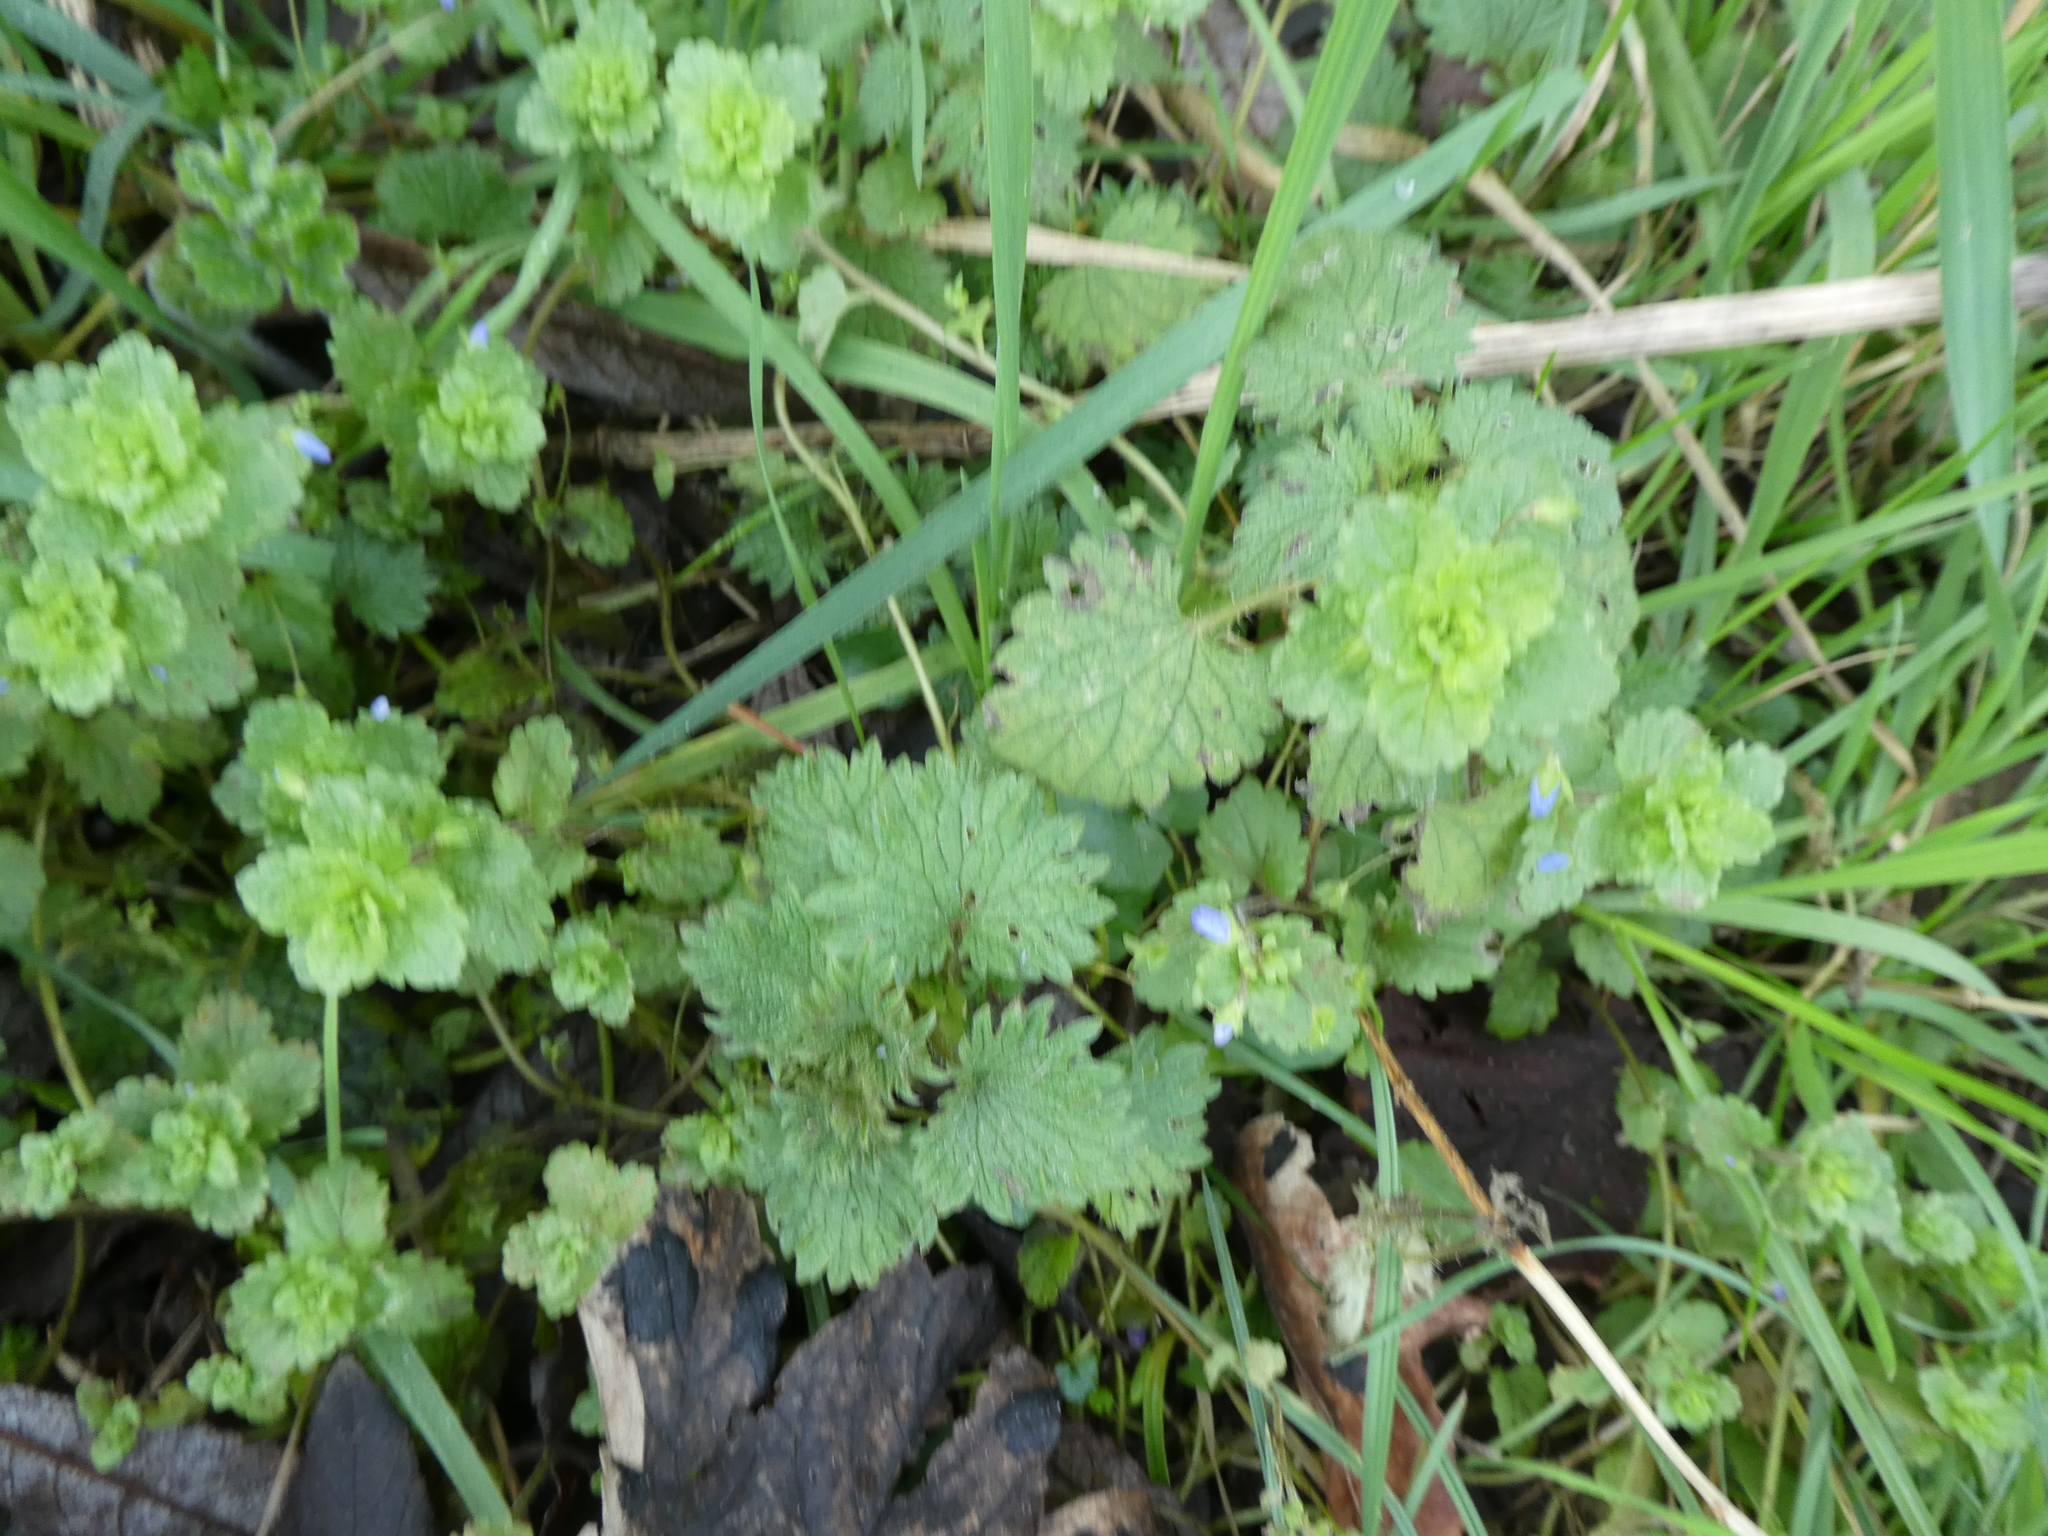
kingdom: Plantae
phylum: Tracheophyta
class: Magnoliopsida
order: Lamiales
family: Plantaginaceae
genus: Veronica
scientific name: Veronica persica
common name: Common field-speedwell
